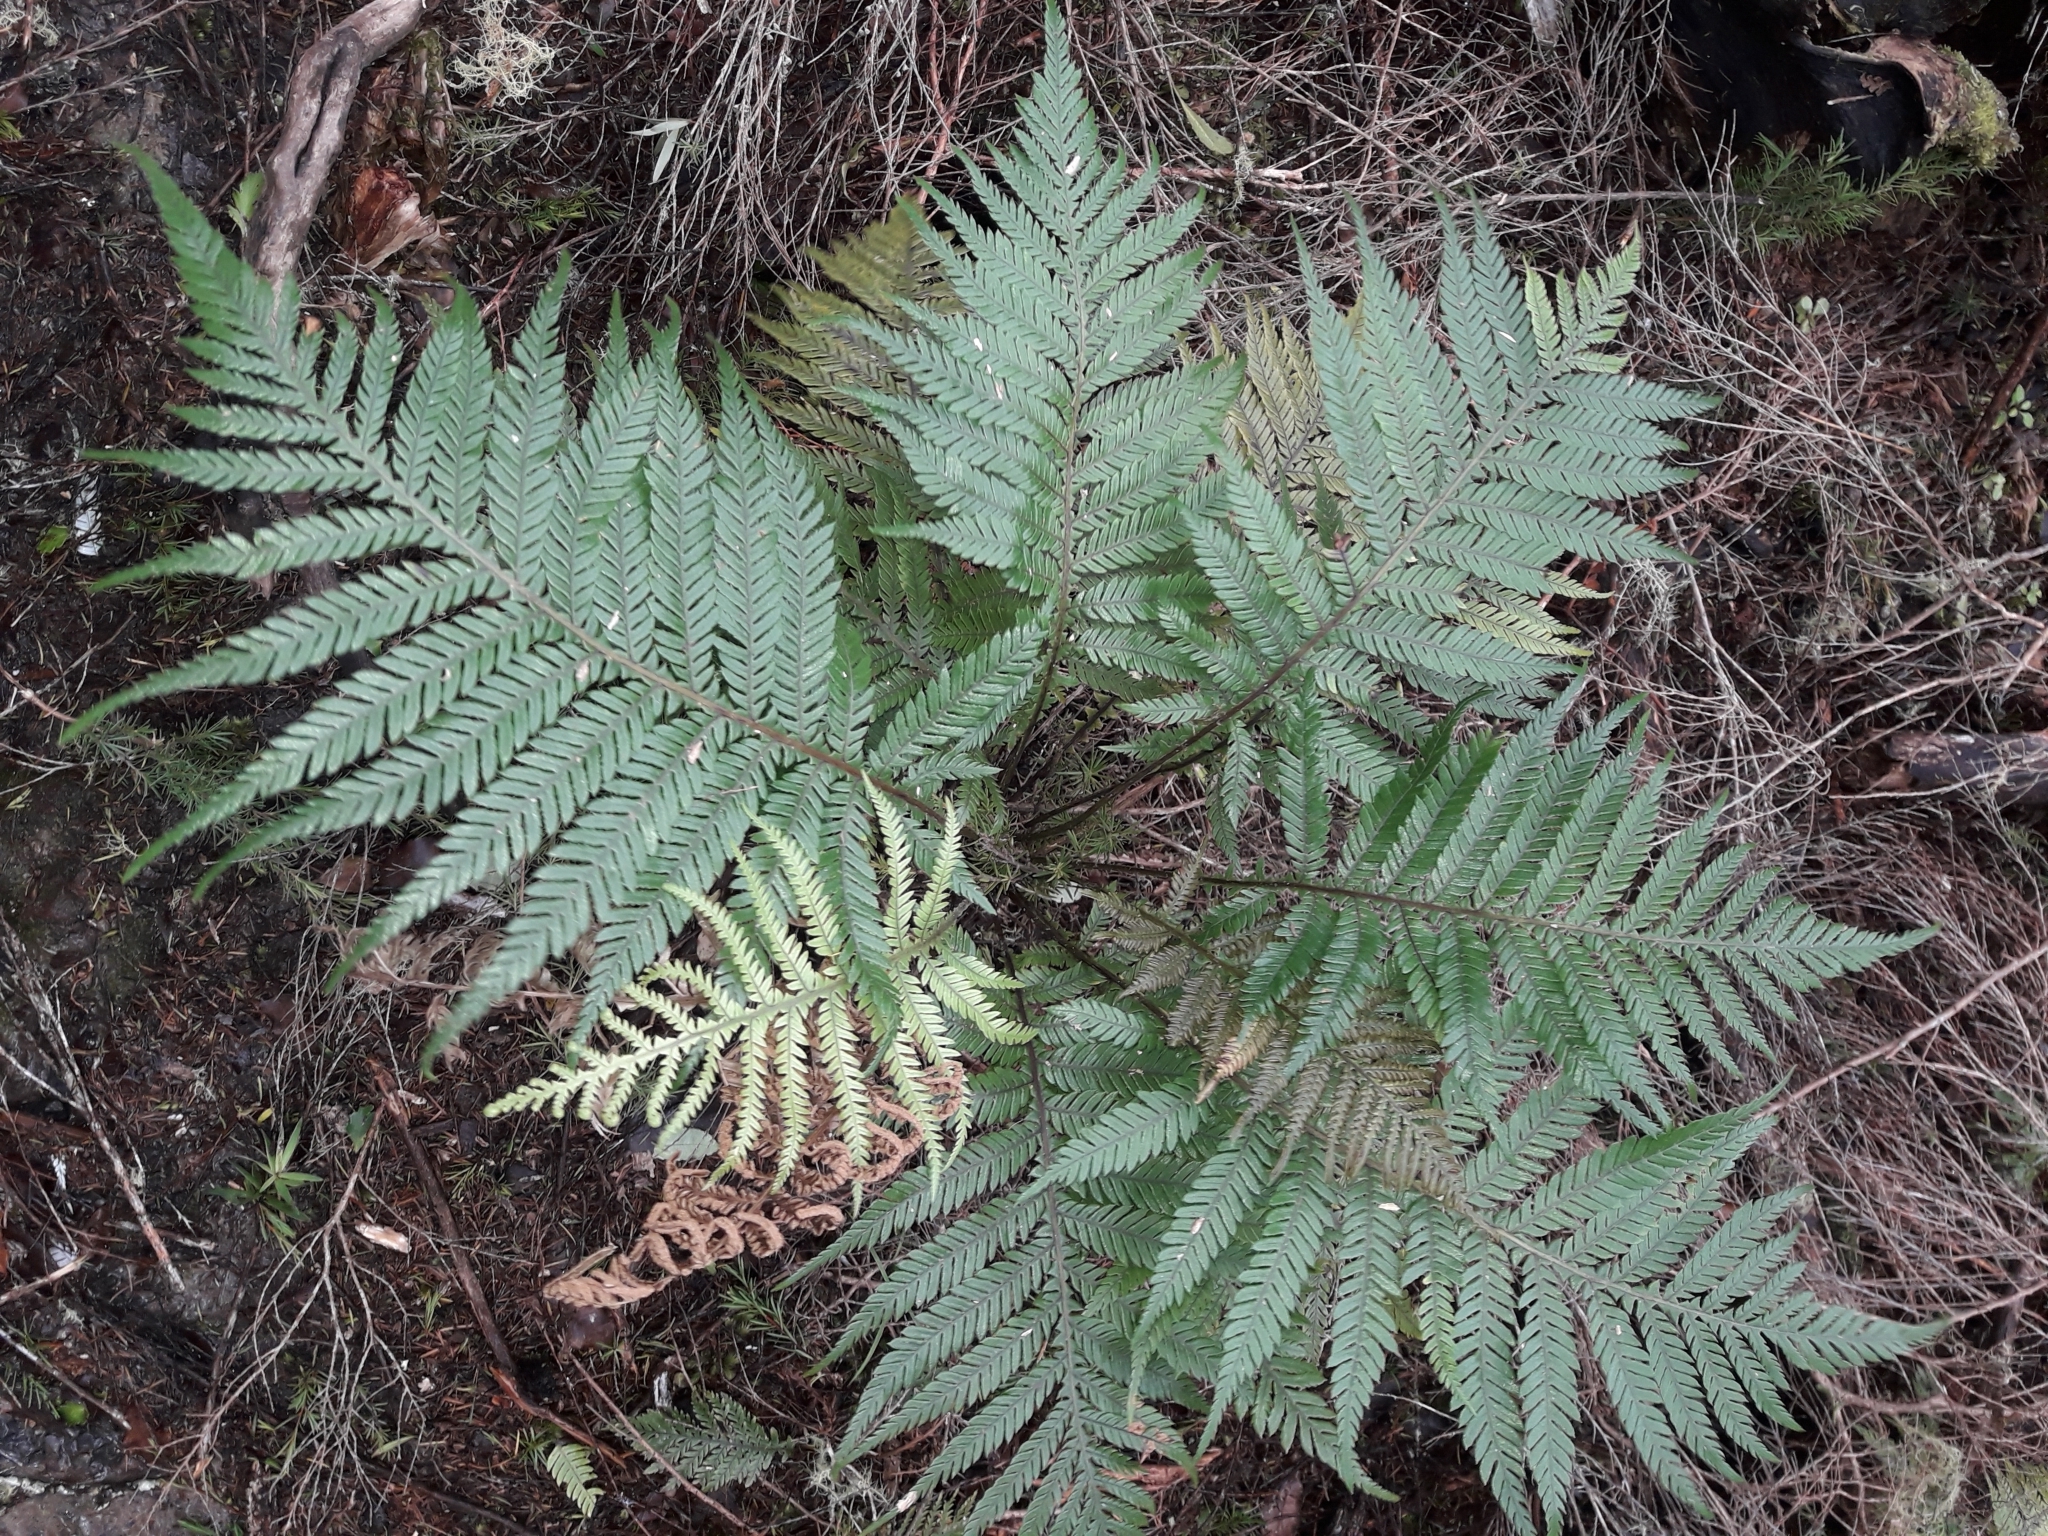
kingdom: Plantae
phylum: Tracheophyta
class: Polypodiopsida
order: Polypodiales
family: Blechnaceae
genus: Diploblechnum
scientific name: Diploblechnum fraseri
